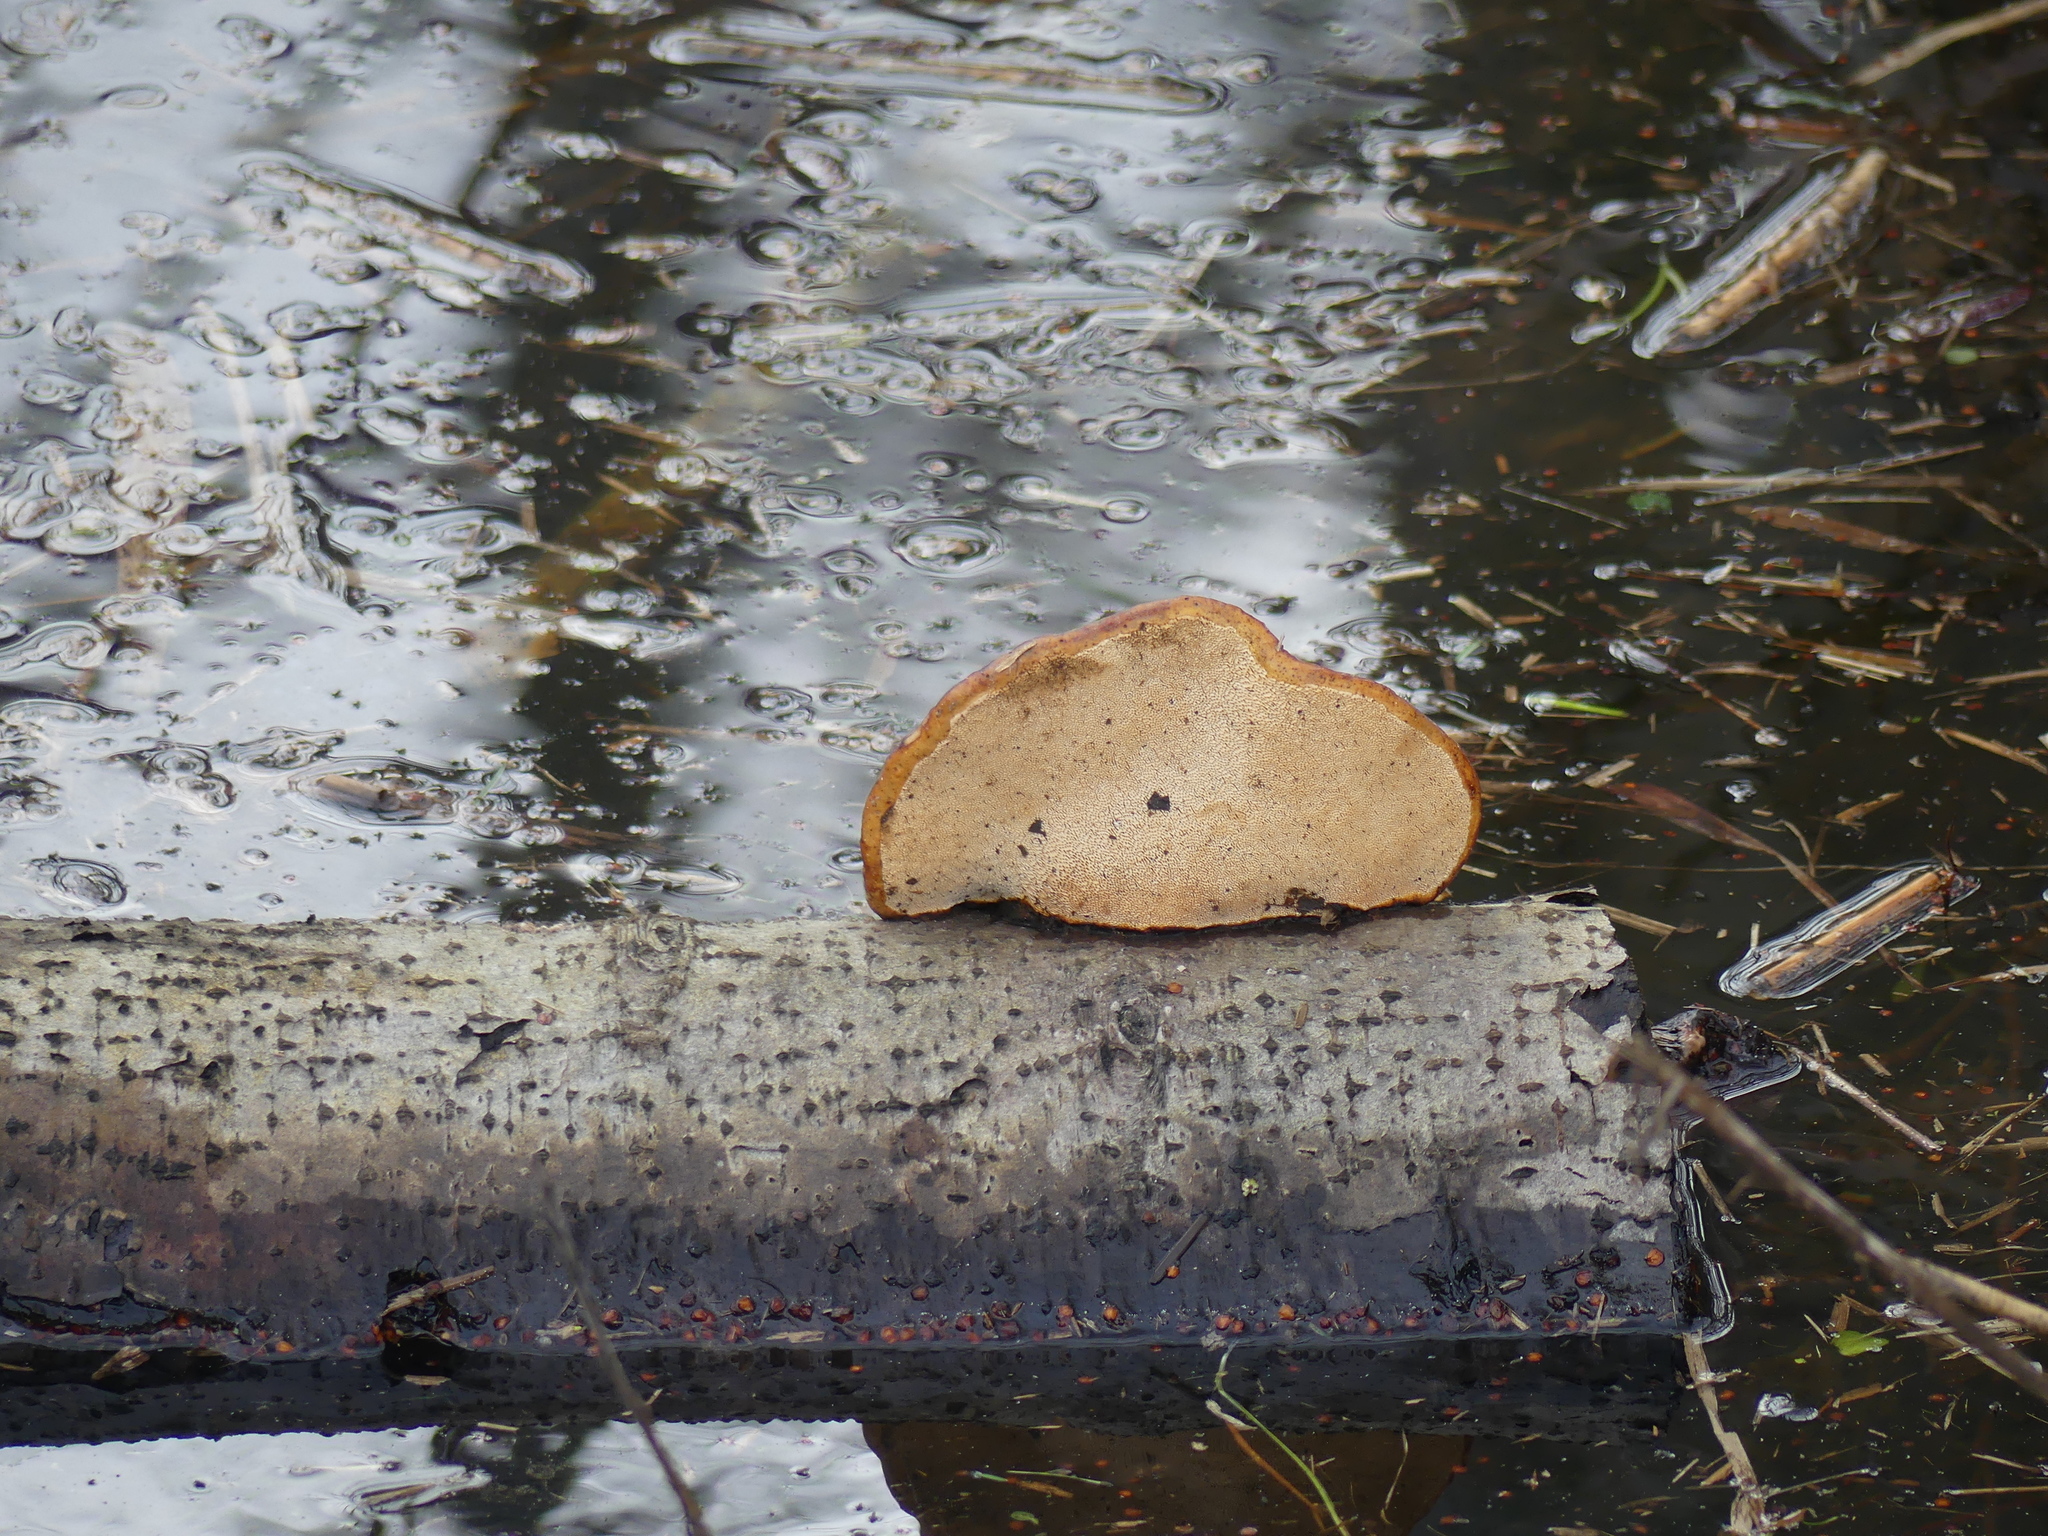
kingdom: Fungi
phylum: Basidiomycota
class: Agaricomycetes
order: Polyporales
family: Fomitopsidaceae
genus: Fomitopsis
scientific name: Fomitopsis pinicola
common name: Red-belted bracket
